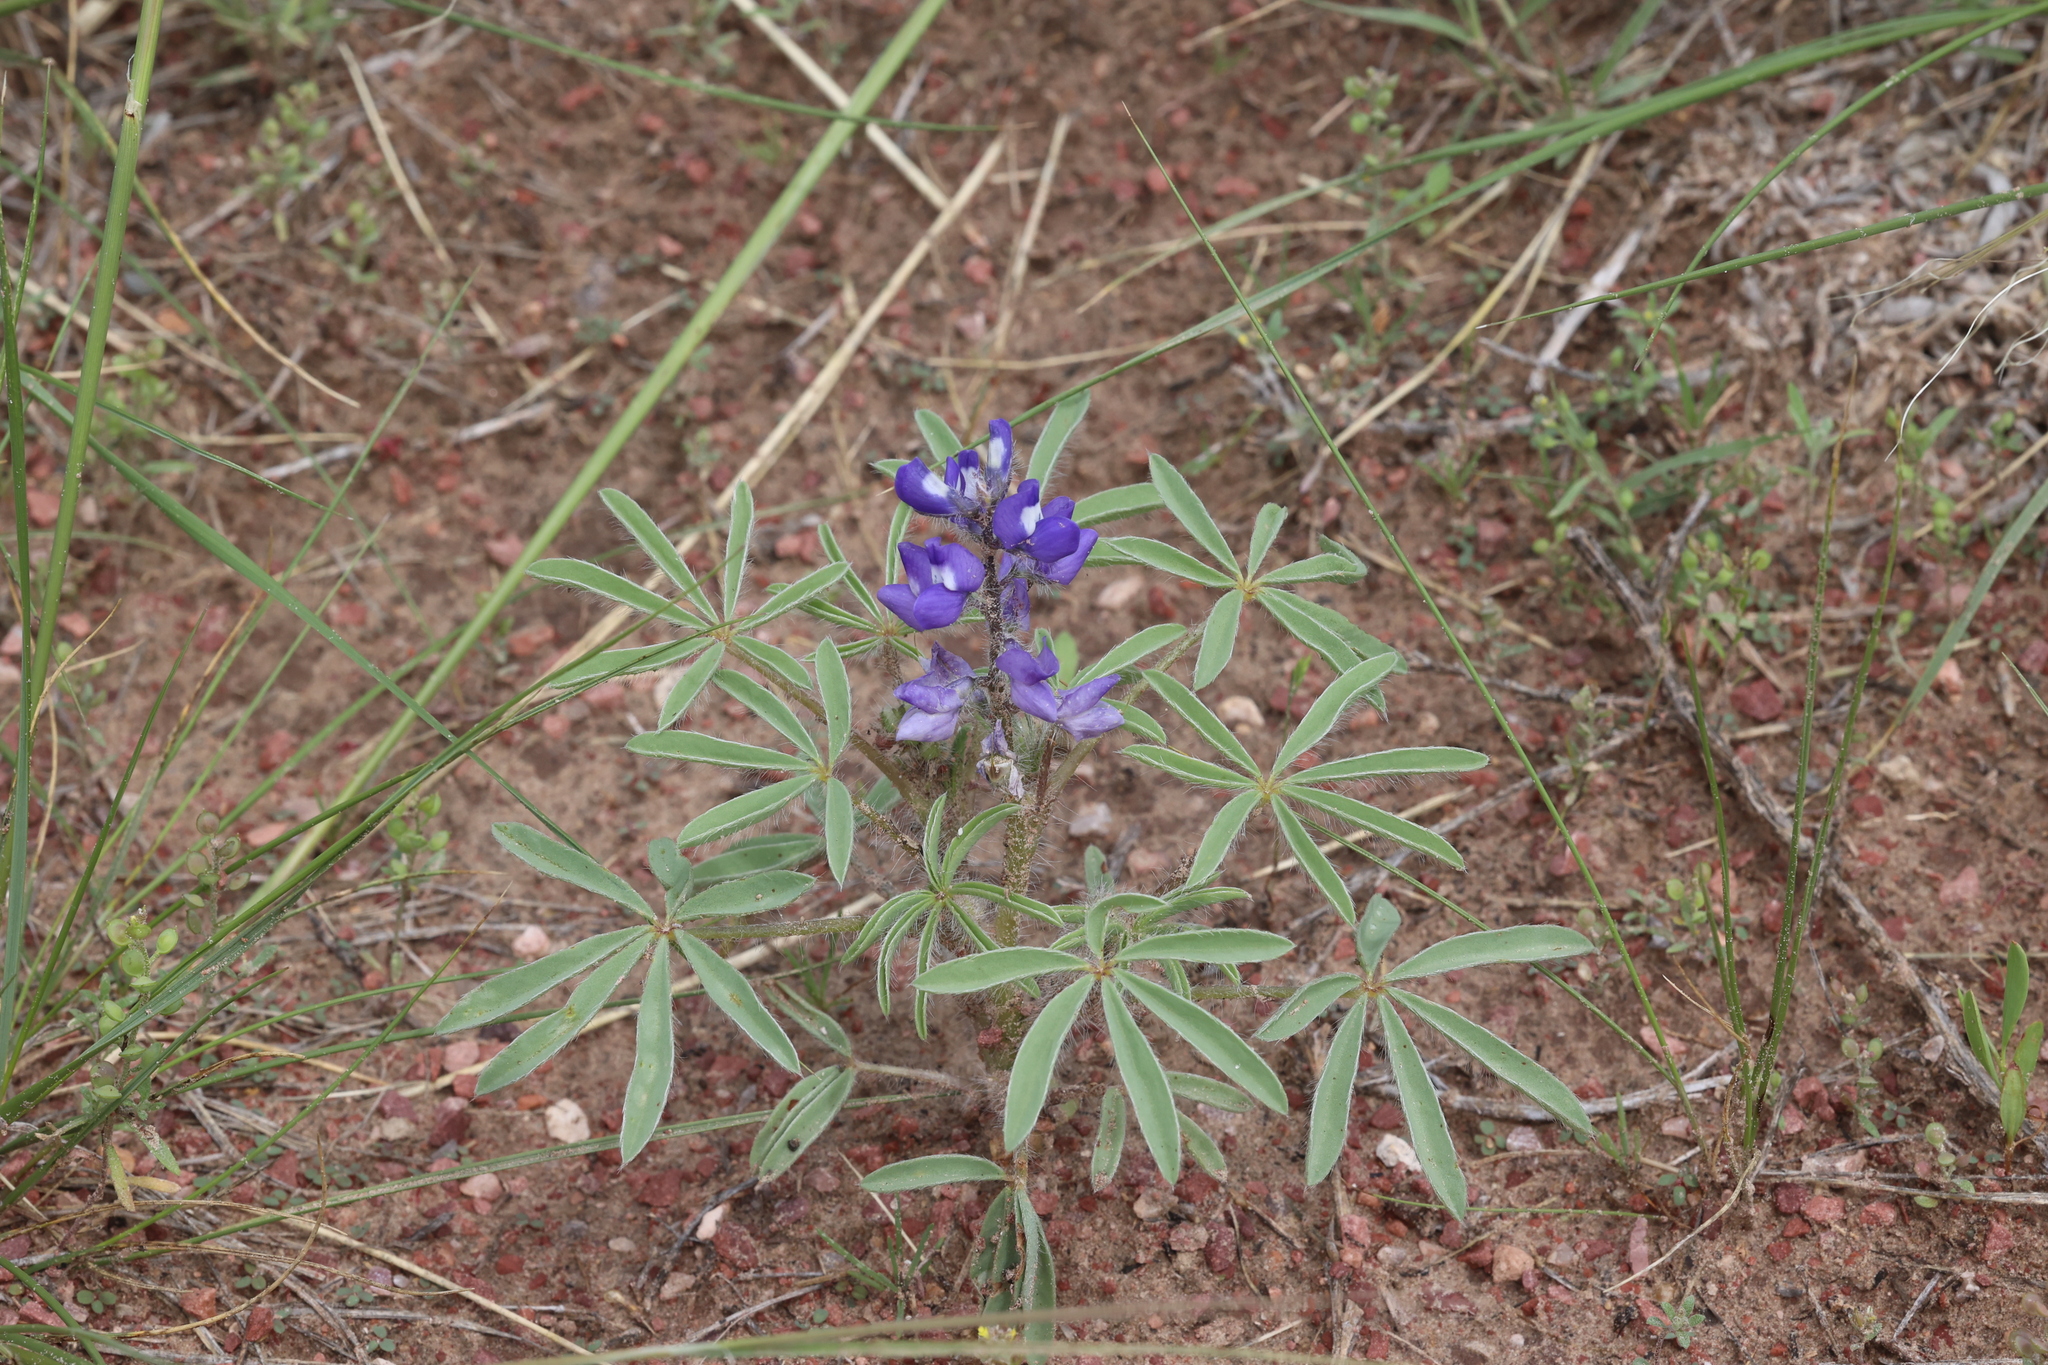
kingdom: Plantae
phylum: Tracheophyta
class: Magnoliopsida
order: Fabales
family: Fabaceae
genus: Lupinus
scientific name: Lupinus pusillus
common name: Low lupine
